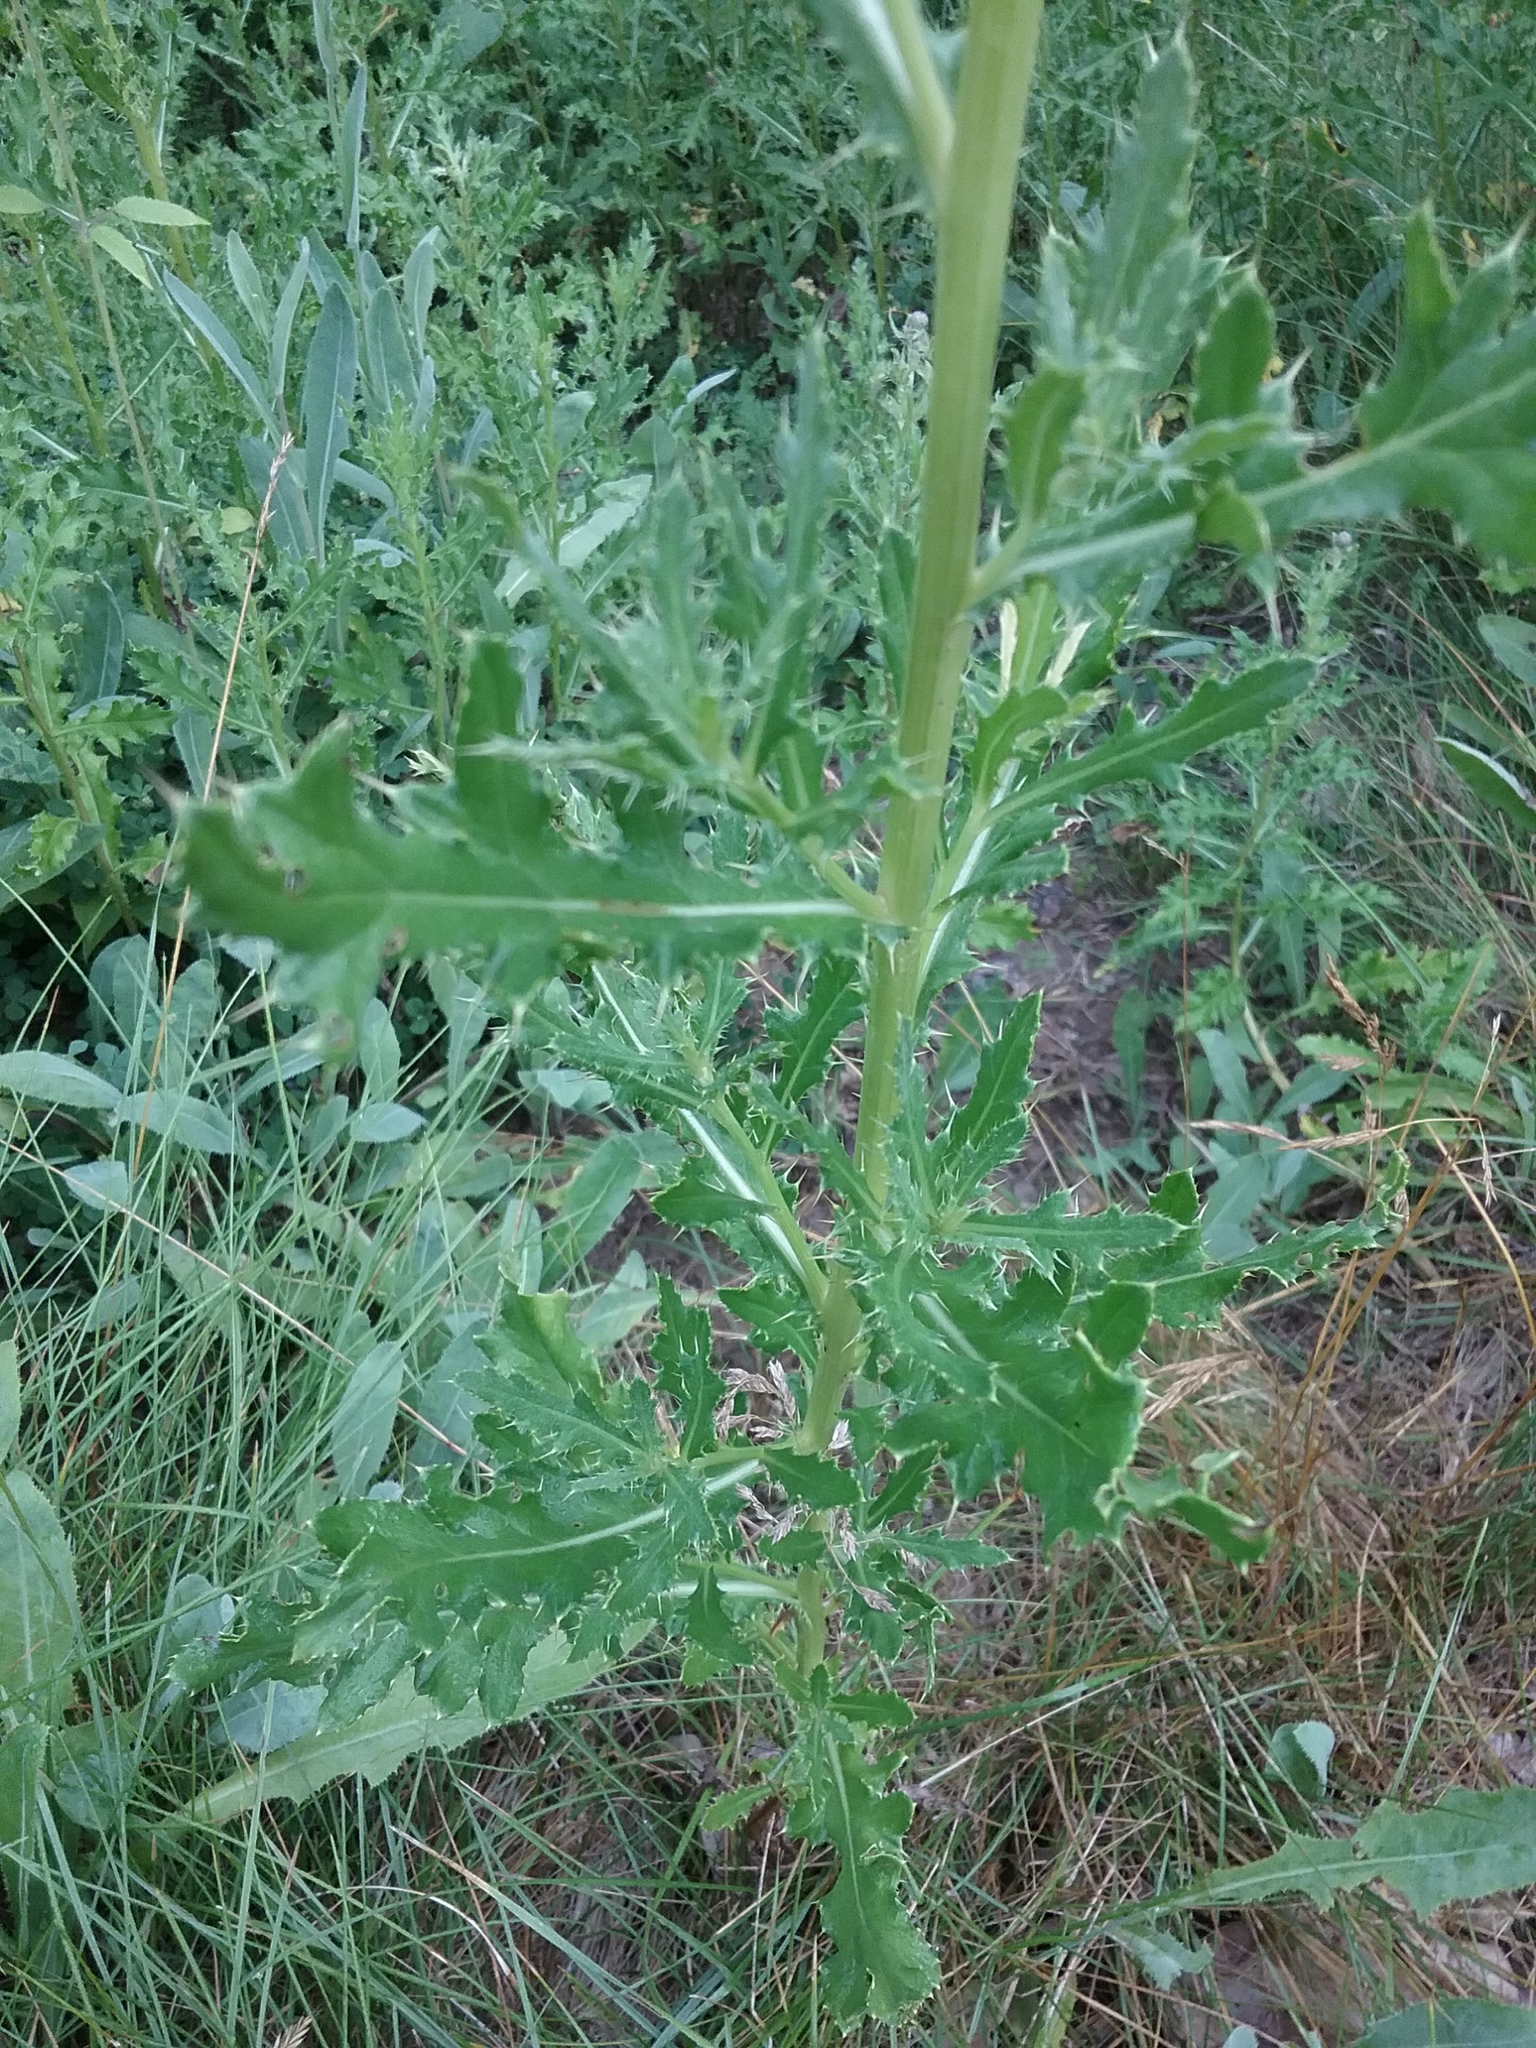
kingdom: Plantae
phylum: Tracheophyta
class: Magnoliopsida
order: Asterales
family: Asteraceae
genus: Cirsium
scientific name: Cirsium arvense
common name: Creeping thistle
